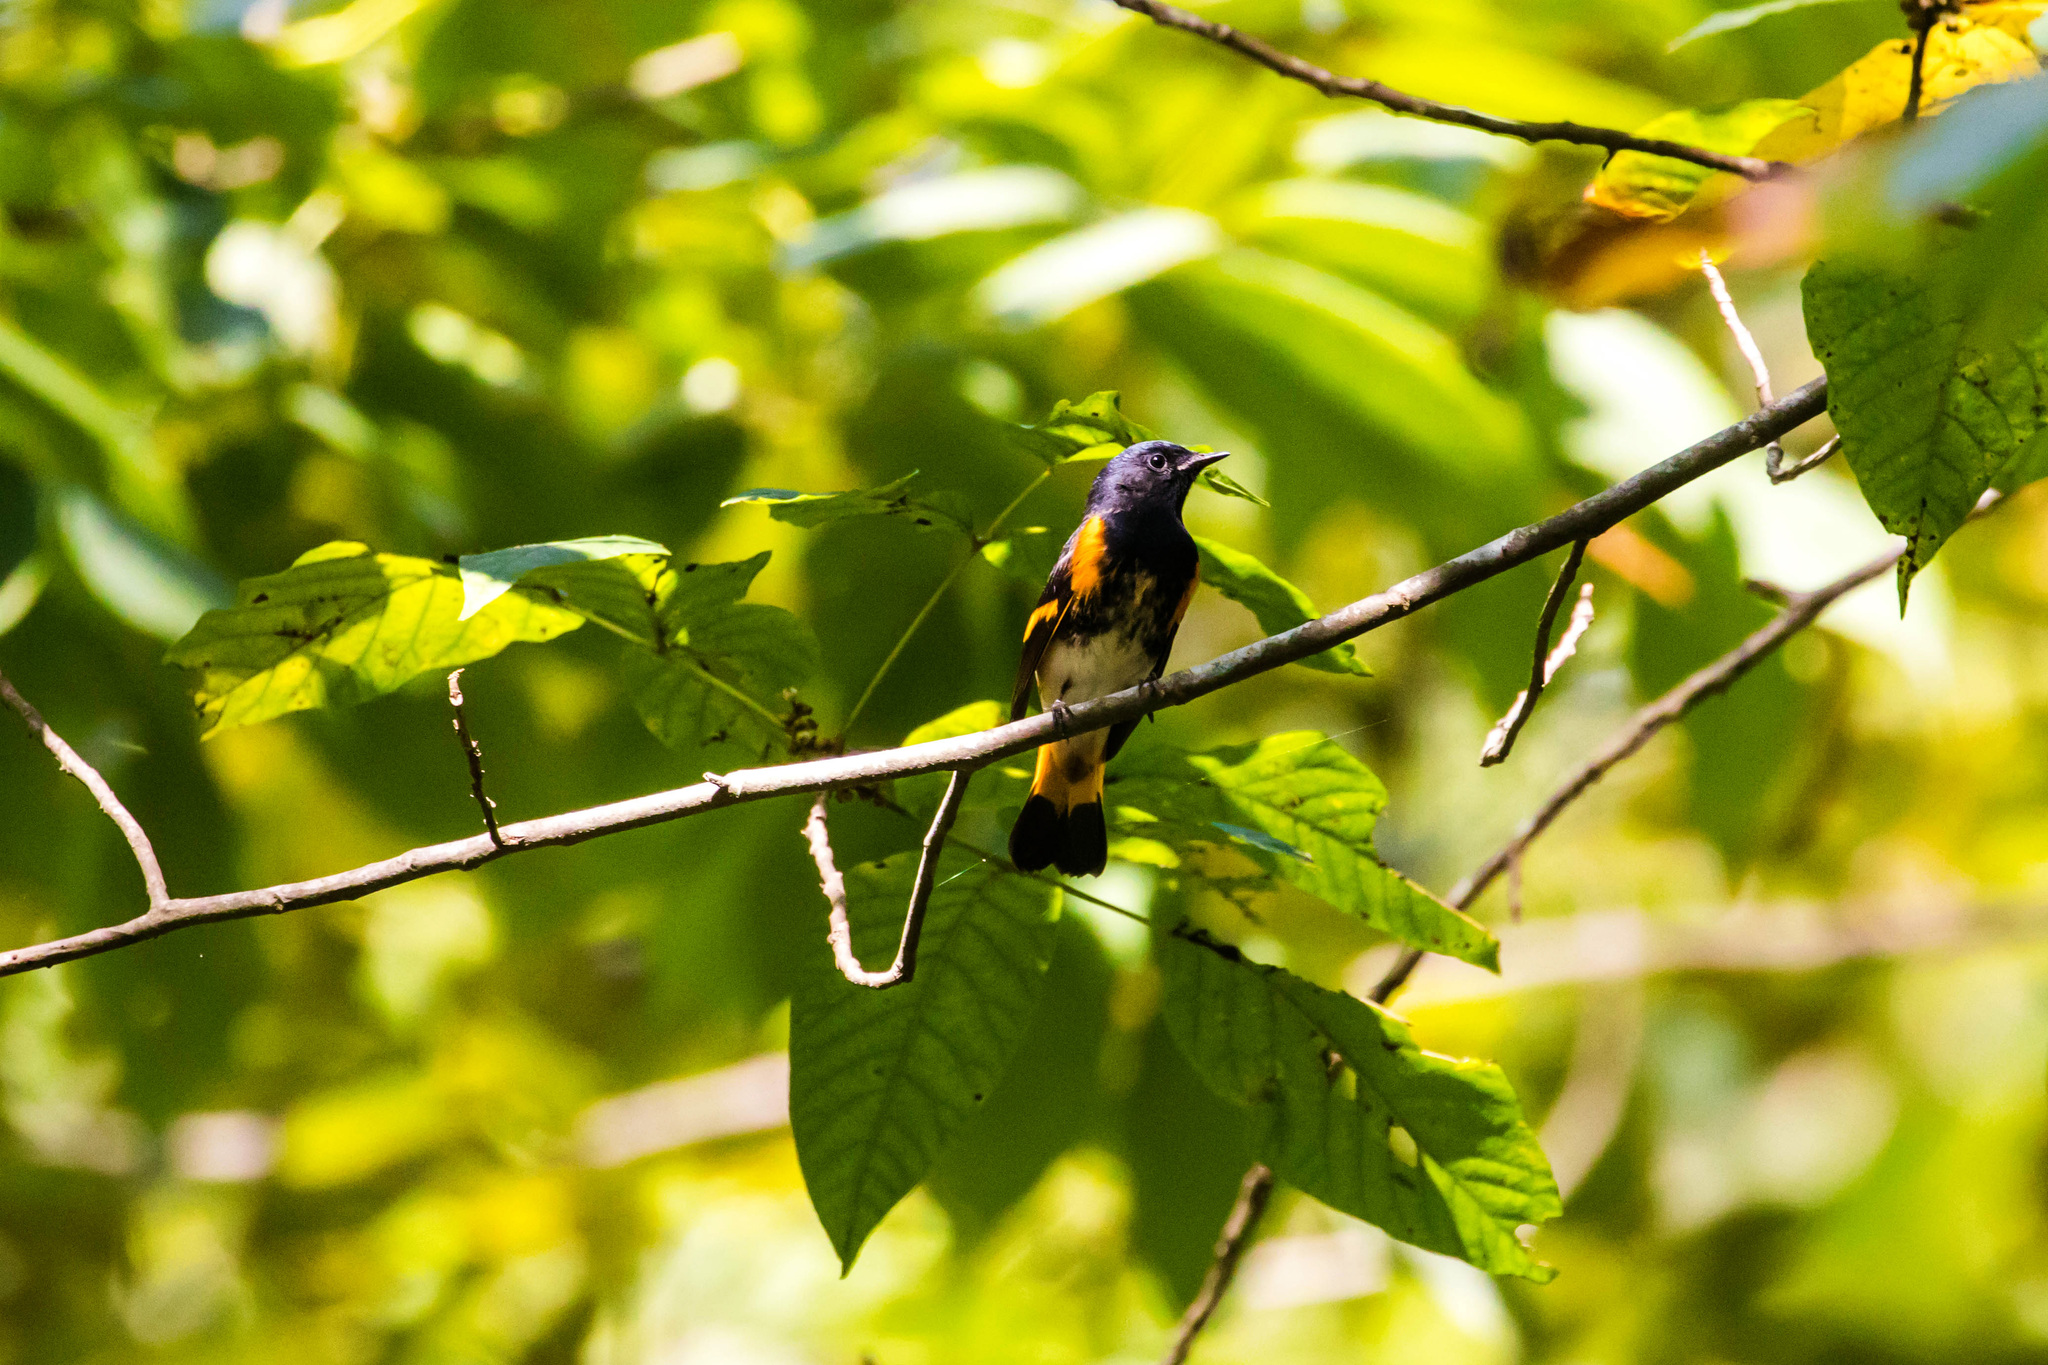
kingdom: Animalia
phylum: Chordata
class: Aves
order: Passeriformes
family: Parulidae
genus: Setophaga
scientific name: Setophaga ruticilla
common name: American redstart
